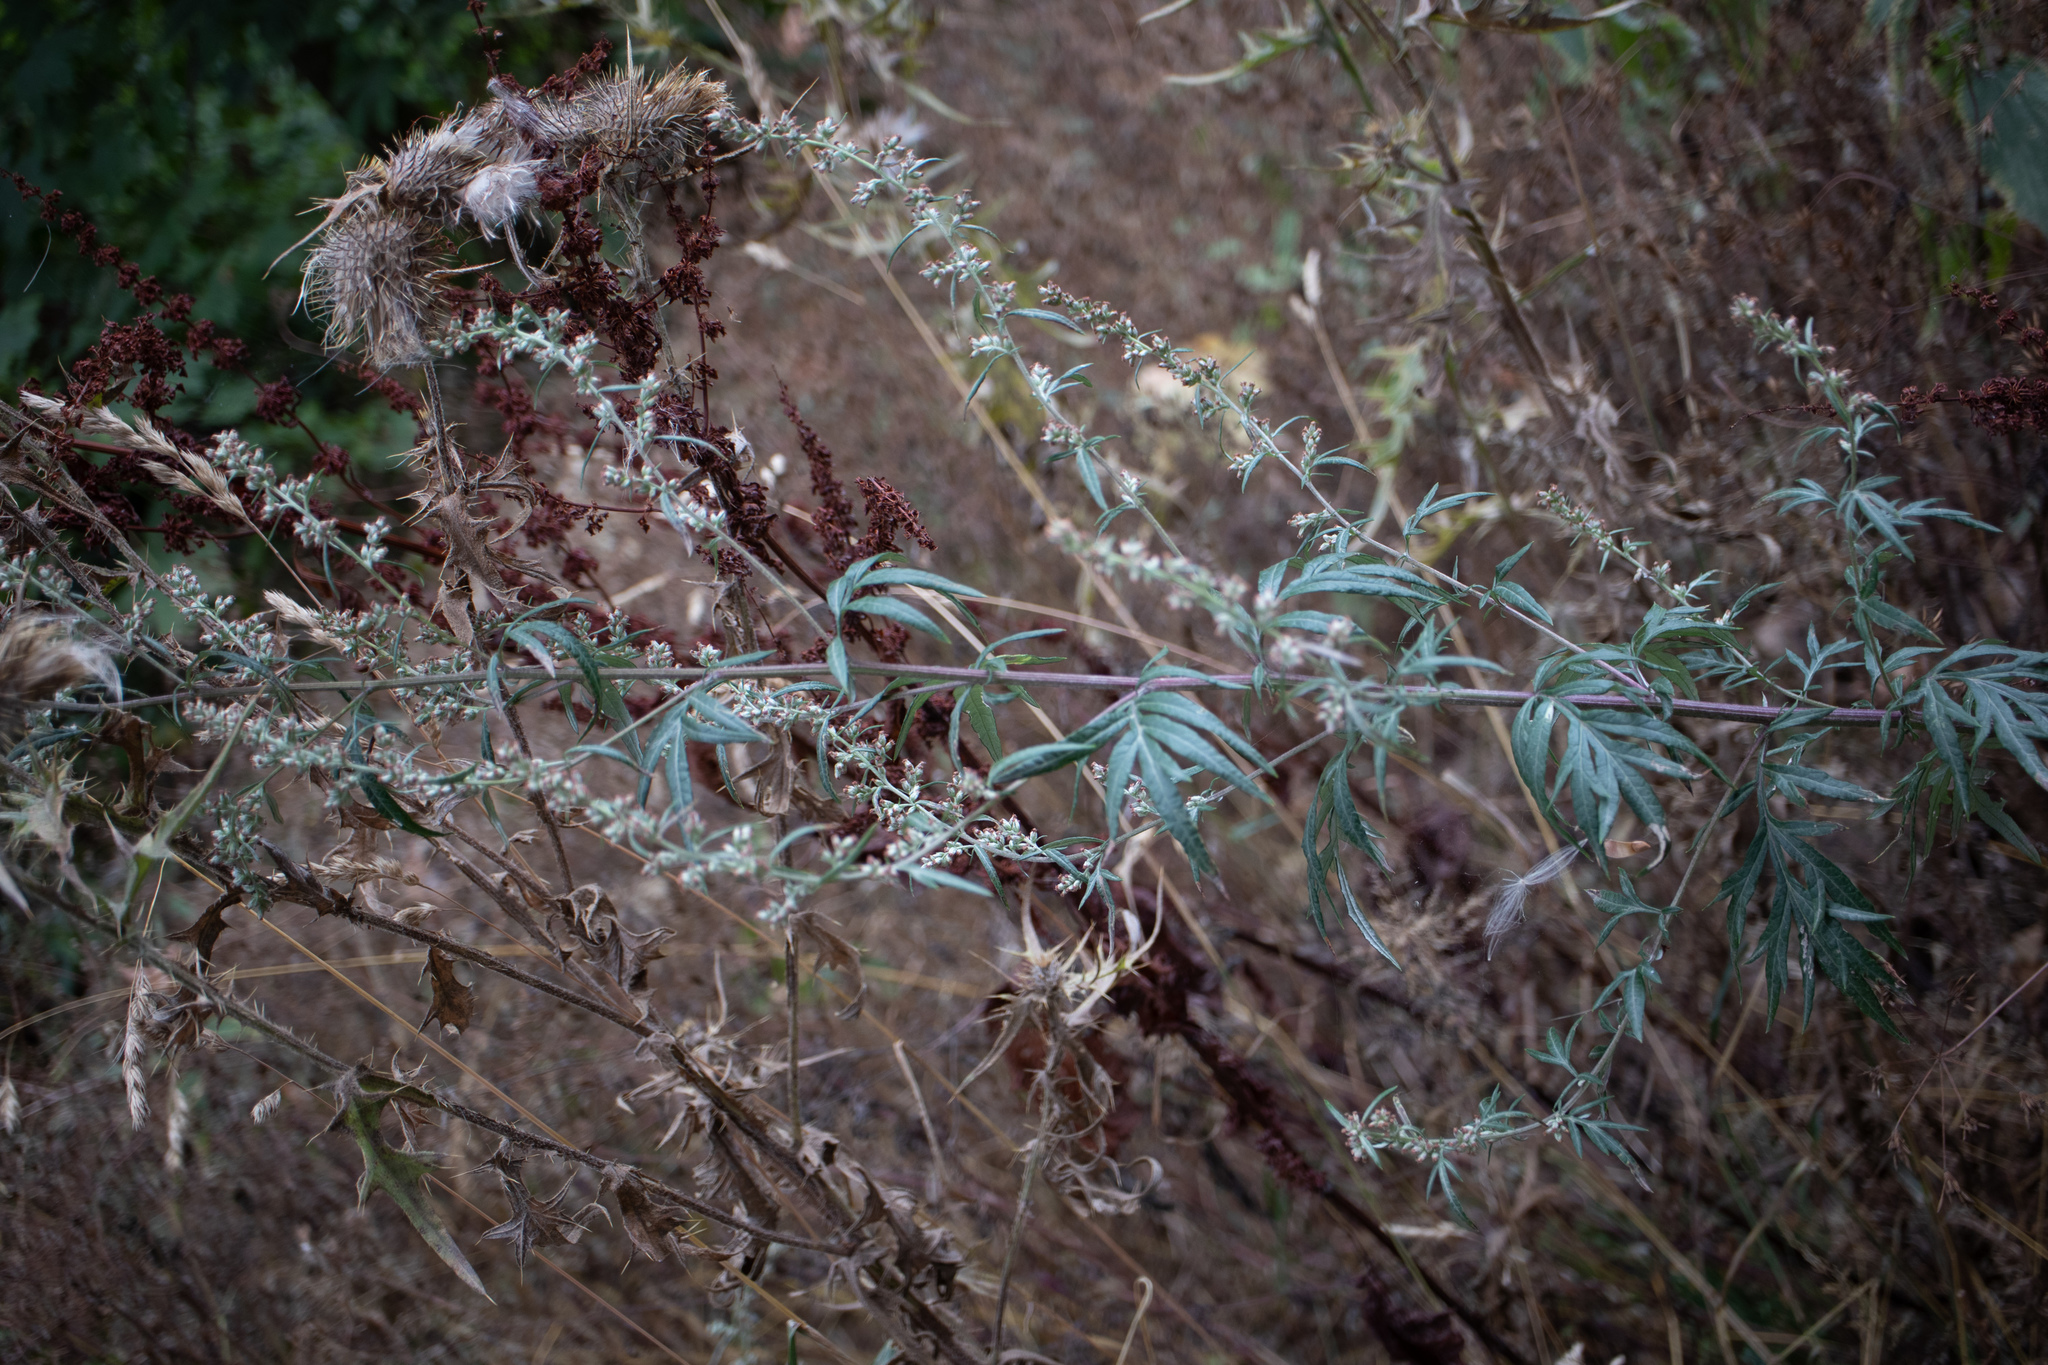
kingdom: Plantae
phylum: Tracheophyta
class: Magnoliopsida
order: Asterales
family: Asteraceae
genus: Artemisia
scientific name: Artemisia vulgaris
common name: Mugwort
